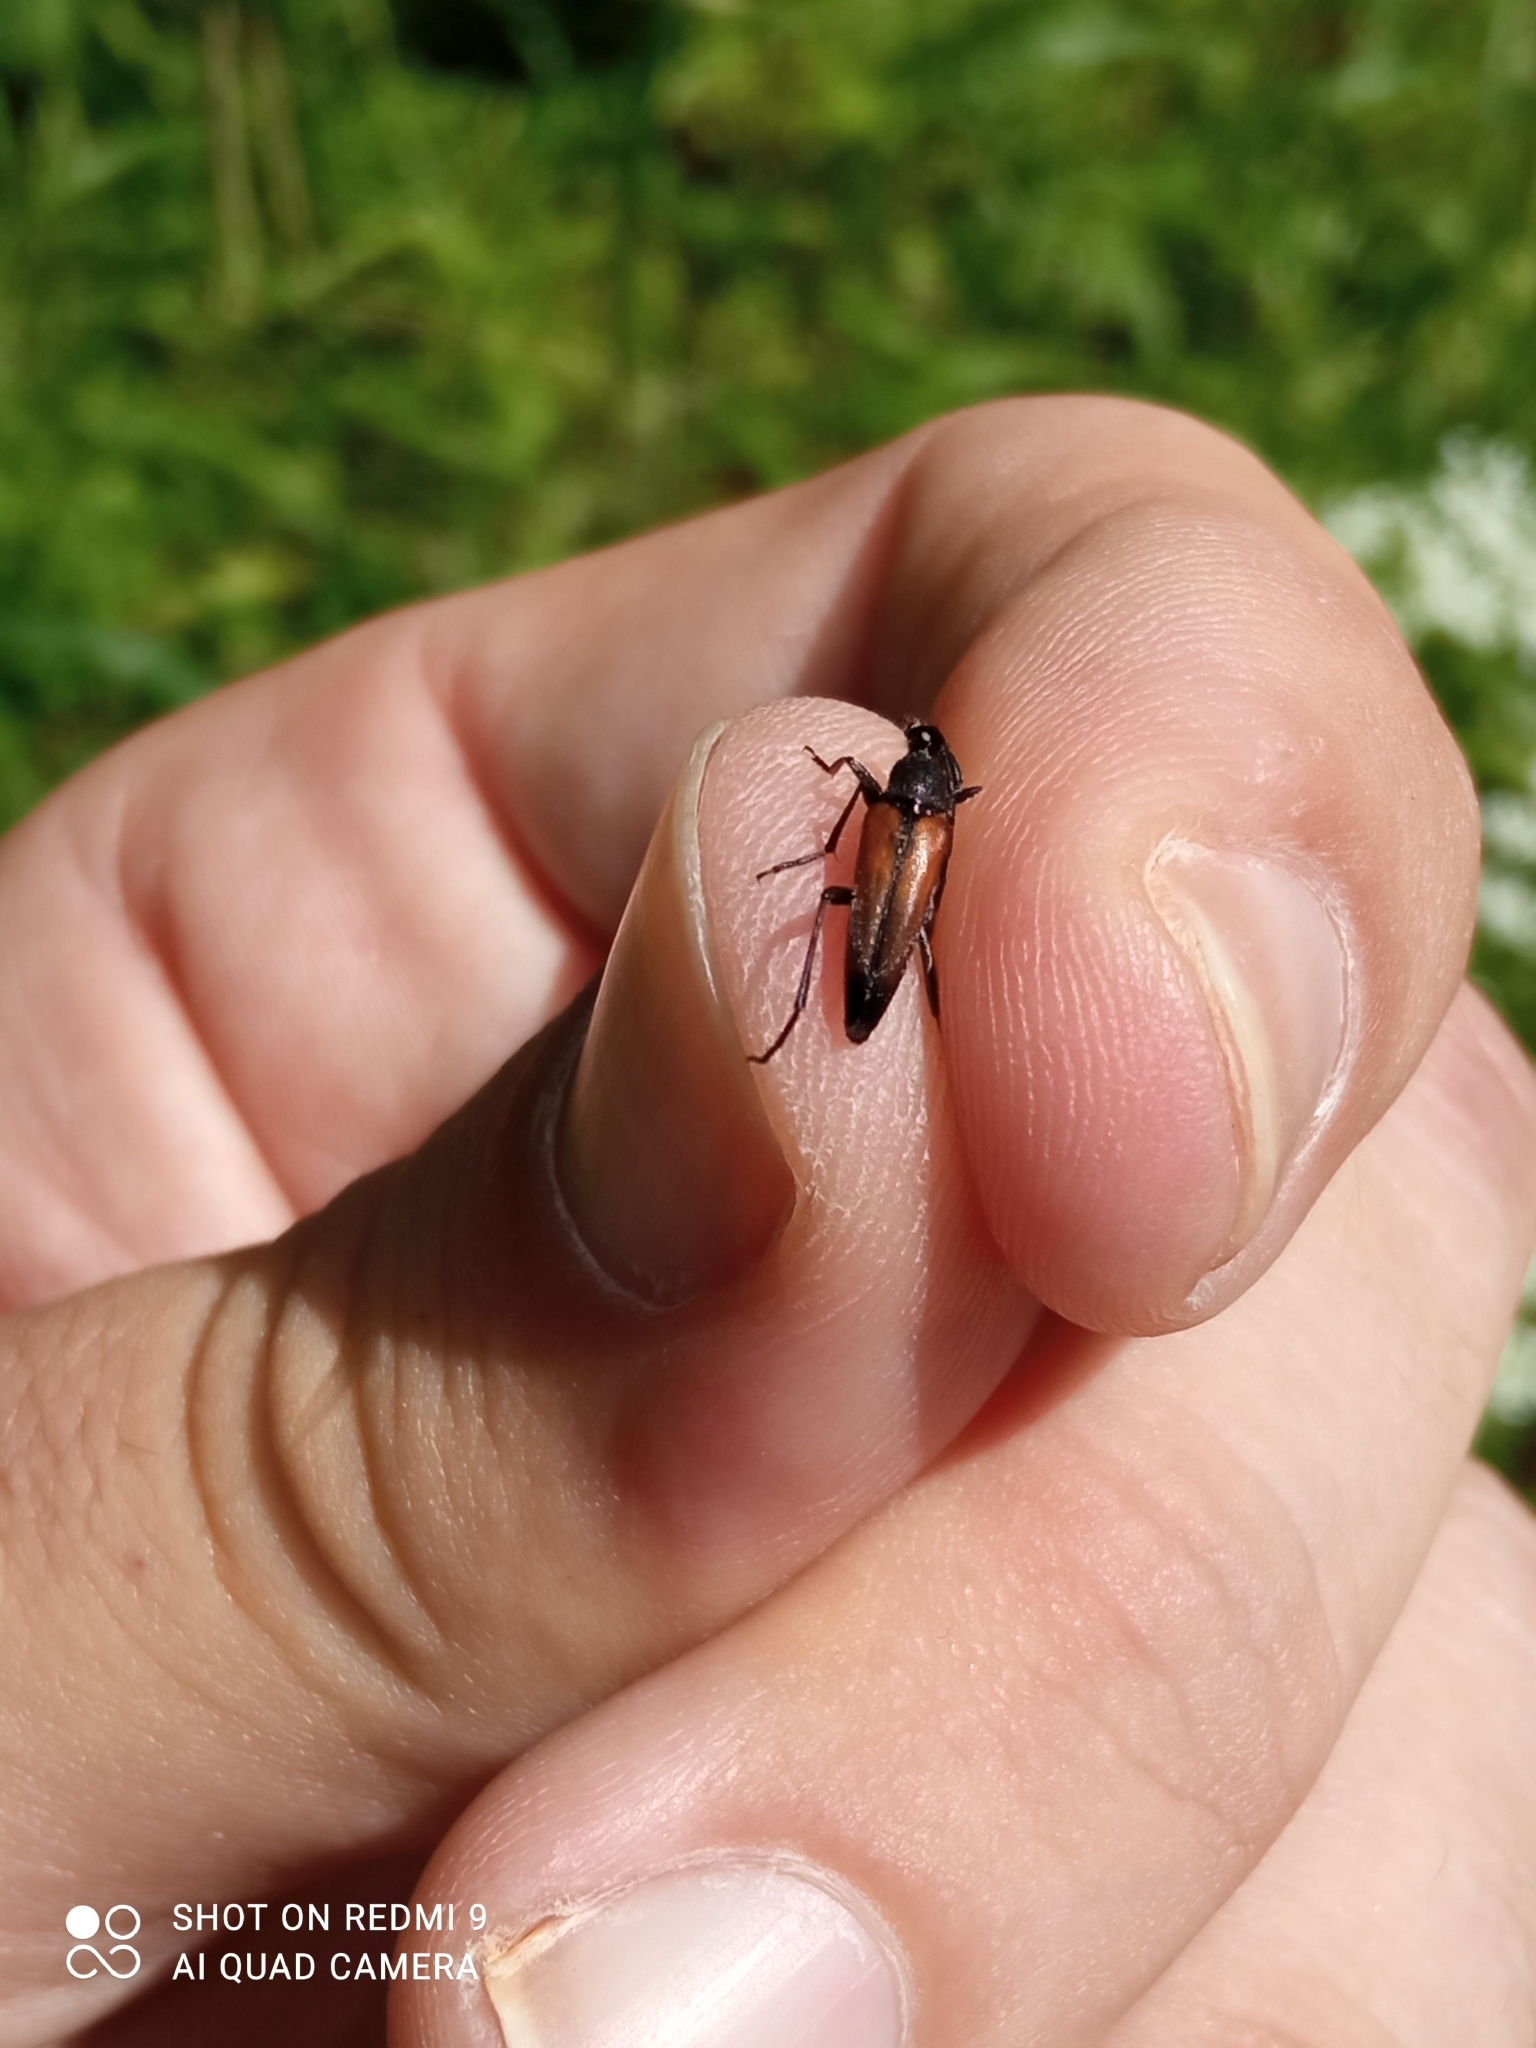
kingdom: Animalia
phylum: Arthropoda
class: Insecta
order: Coleoptera
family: Cerambycidae
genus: Stenurella
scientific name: Stenurella melanura
